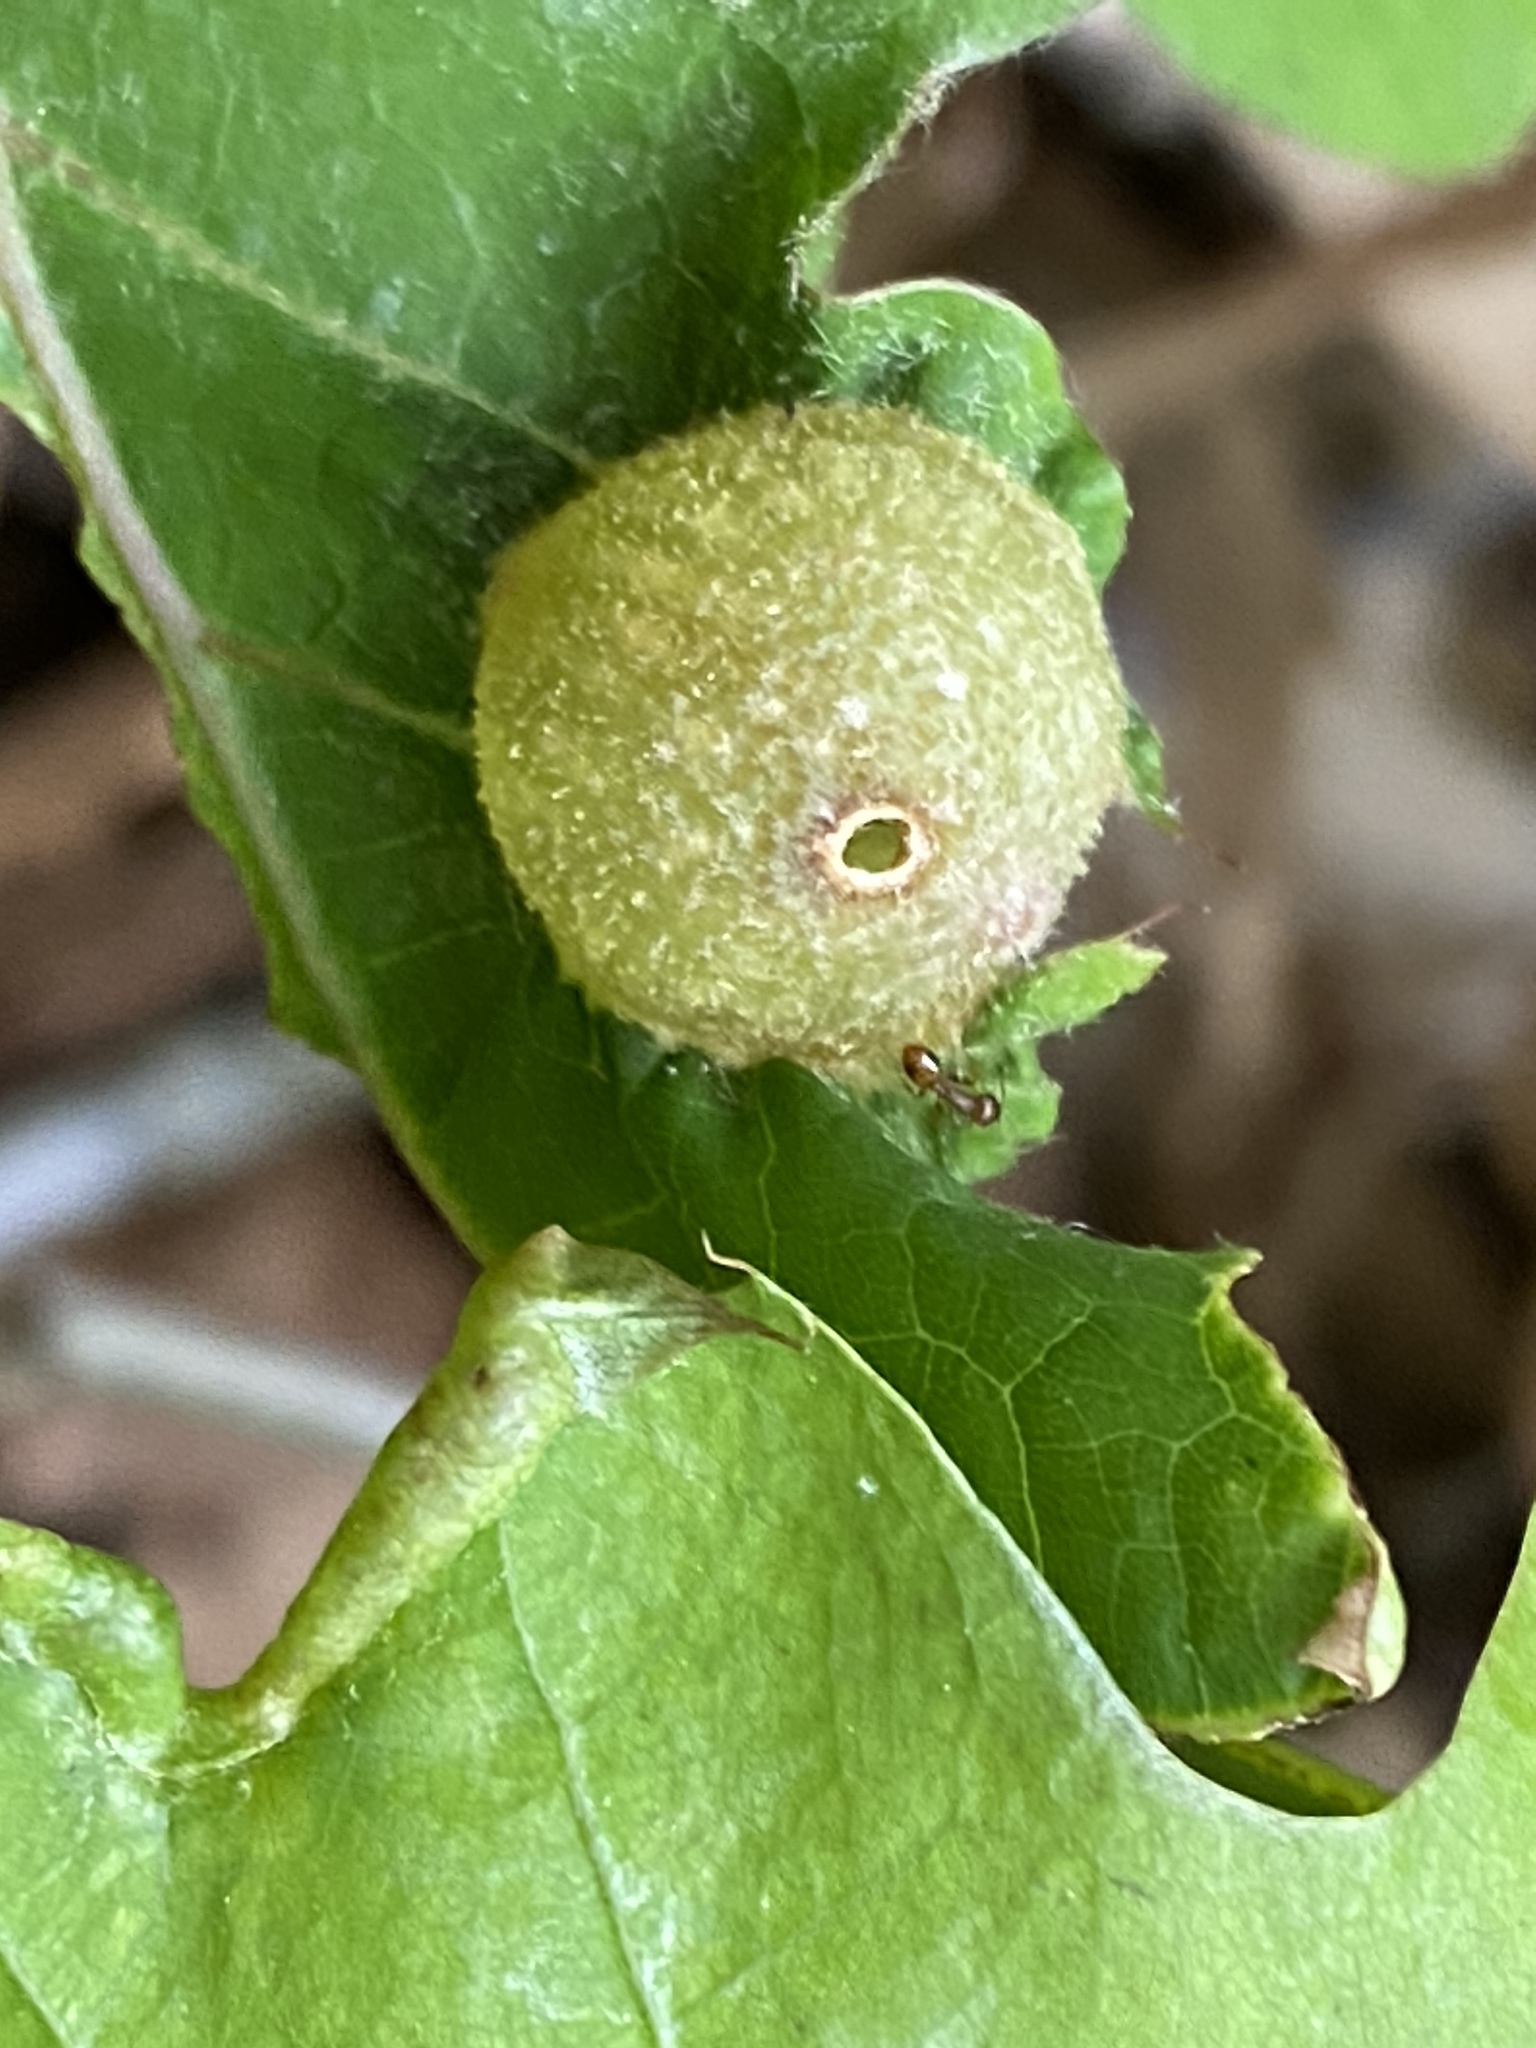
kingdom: Animalia
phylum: Arthropoda
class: Insecta
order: Hymenoptera
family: Cynipidae
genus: Dryocosmus
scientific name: Dryocosmus quercuspalustris
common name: Succulent oak gall wasp
